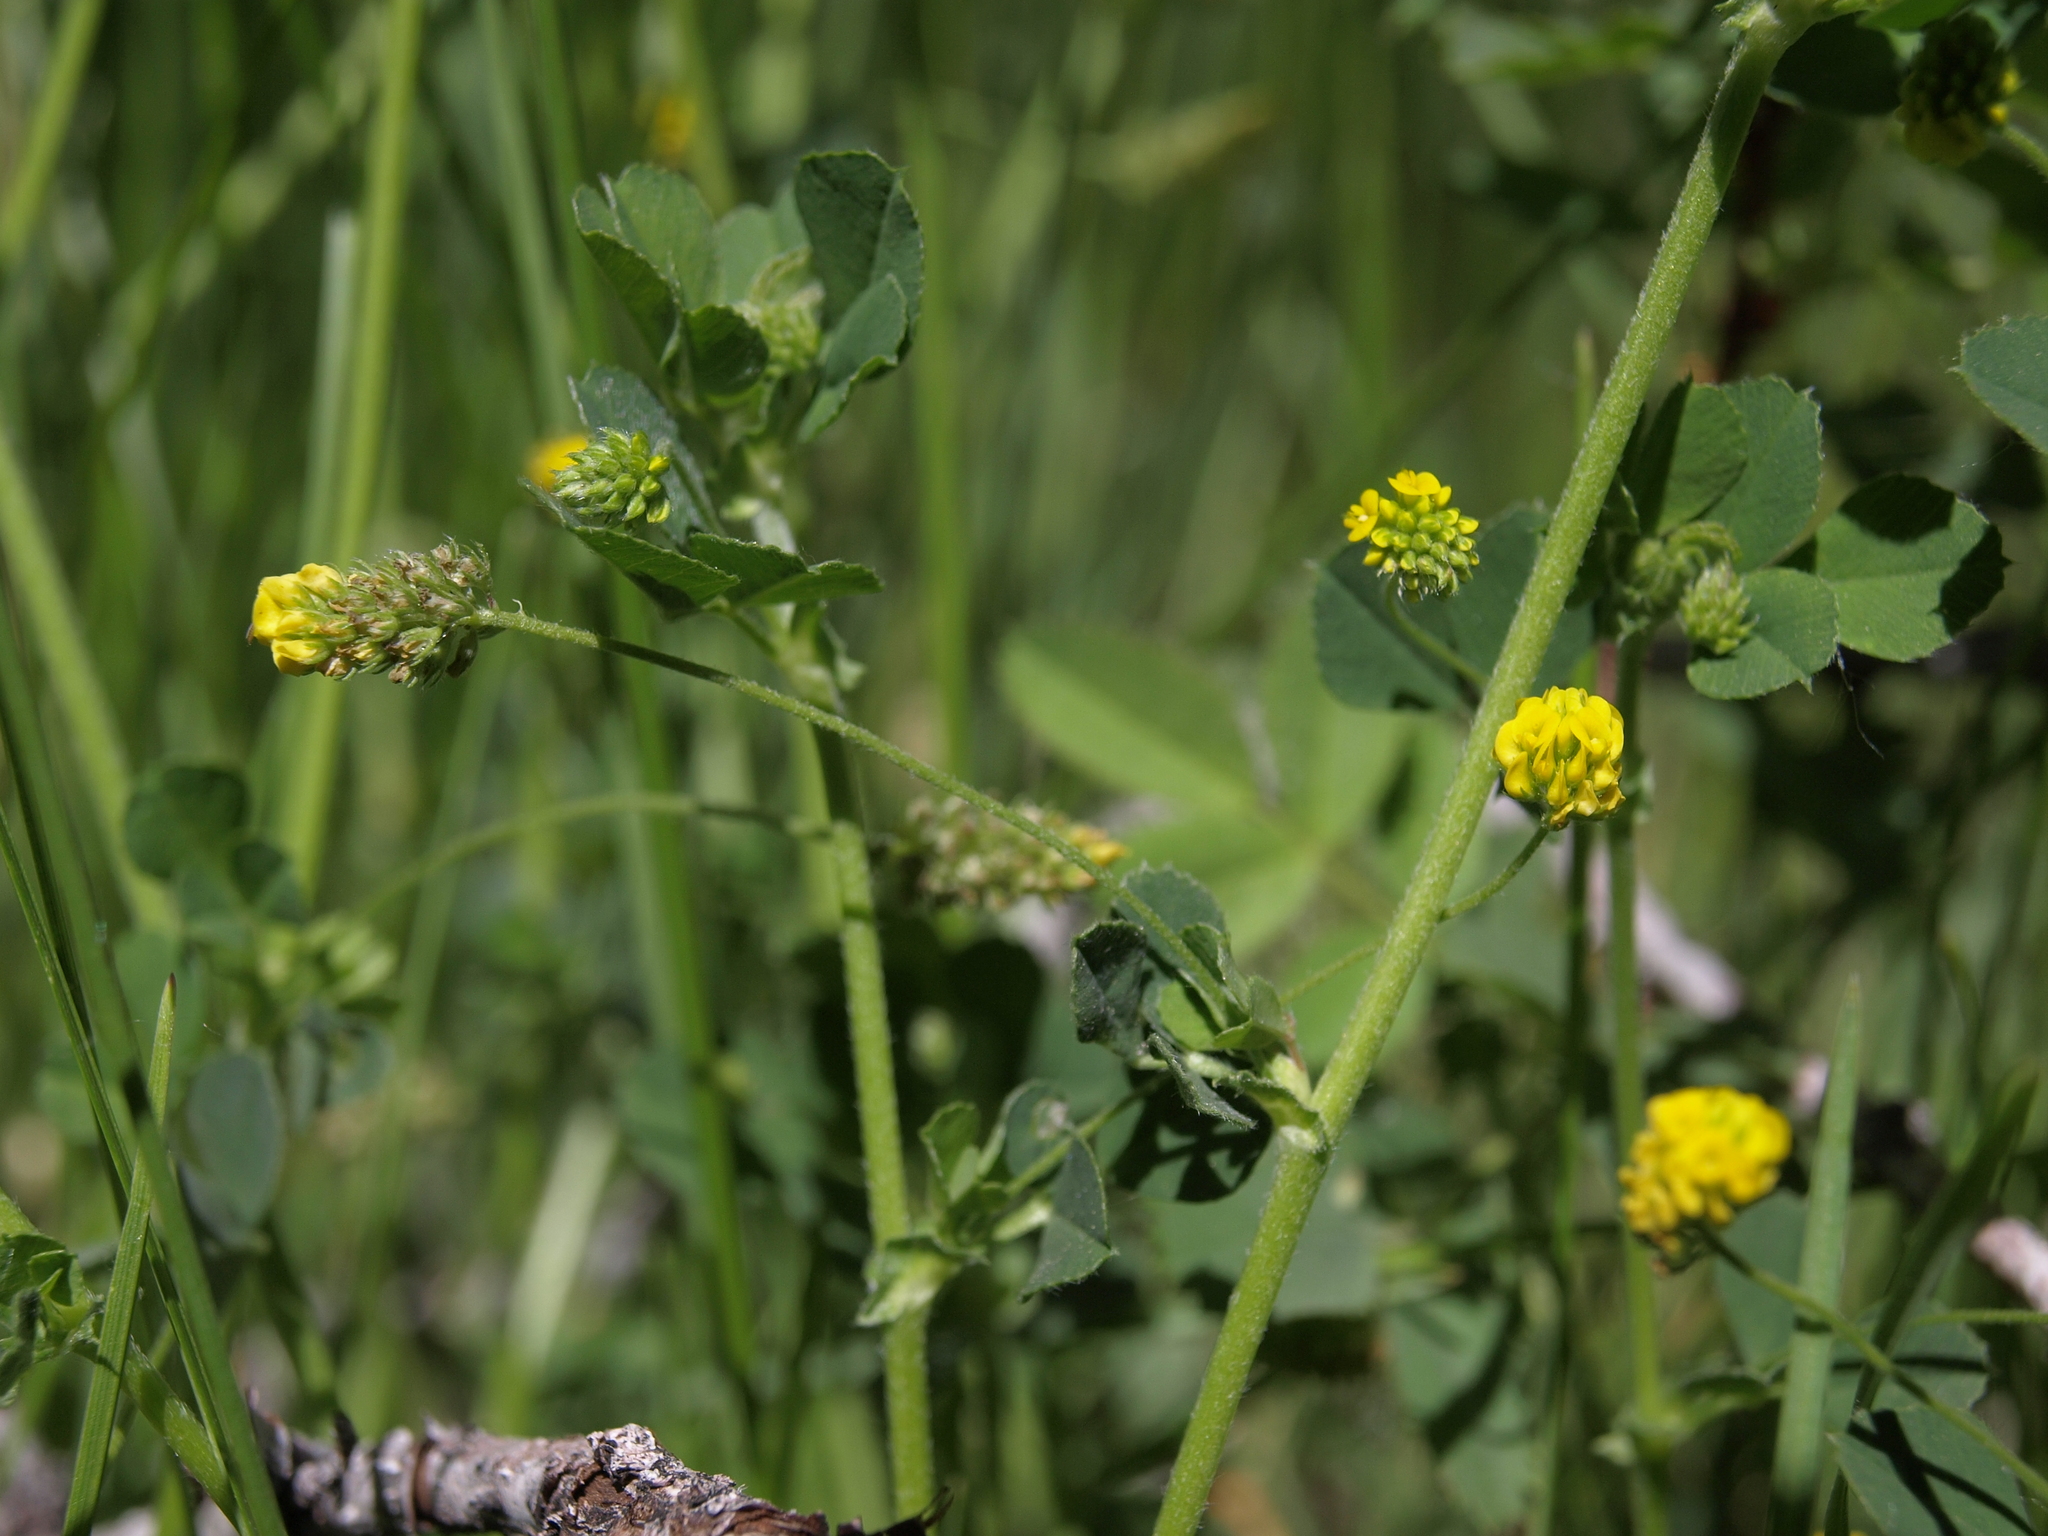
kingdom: Plantae
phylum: Tracheophyta
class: Magnoliopsida
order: Fabales
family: Fabaceae
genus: Medicago
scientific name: Medicago lupulina
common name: Black medick
